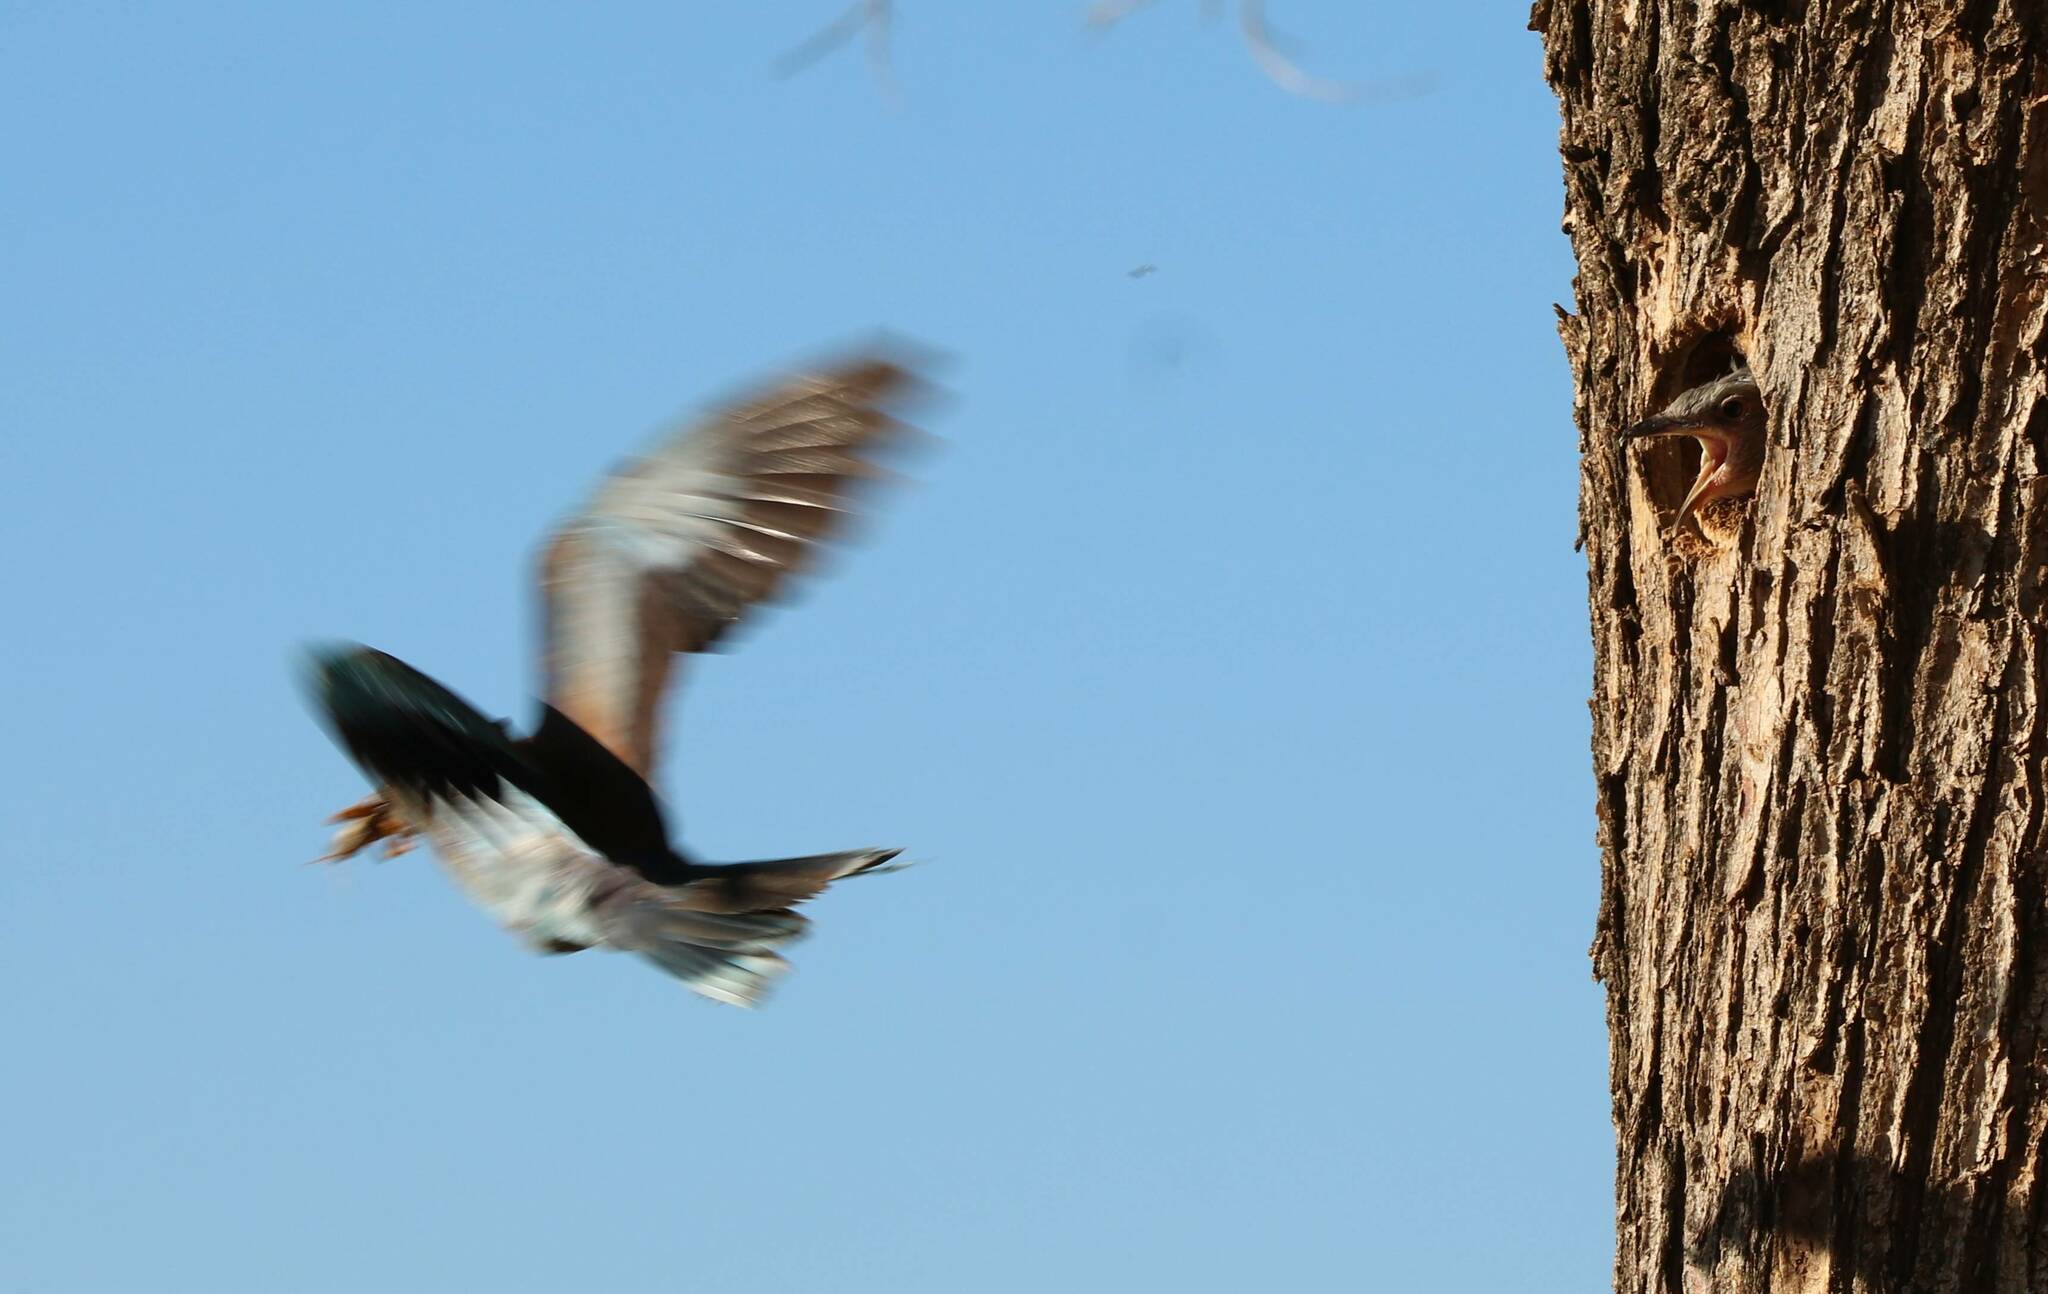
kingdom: Animalia
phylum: Chordata
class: Aves
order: Coraciiformes
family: Coraciidae
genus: Coracias
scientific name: Coracias garrulus
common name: European roller
